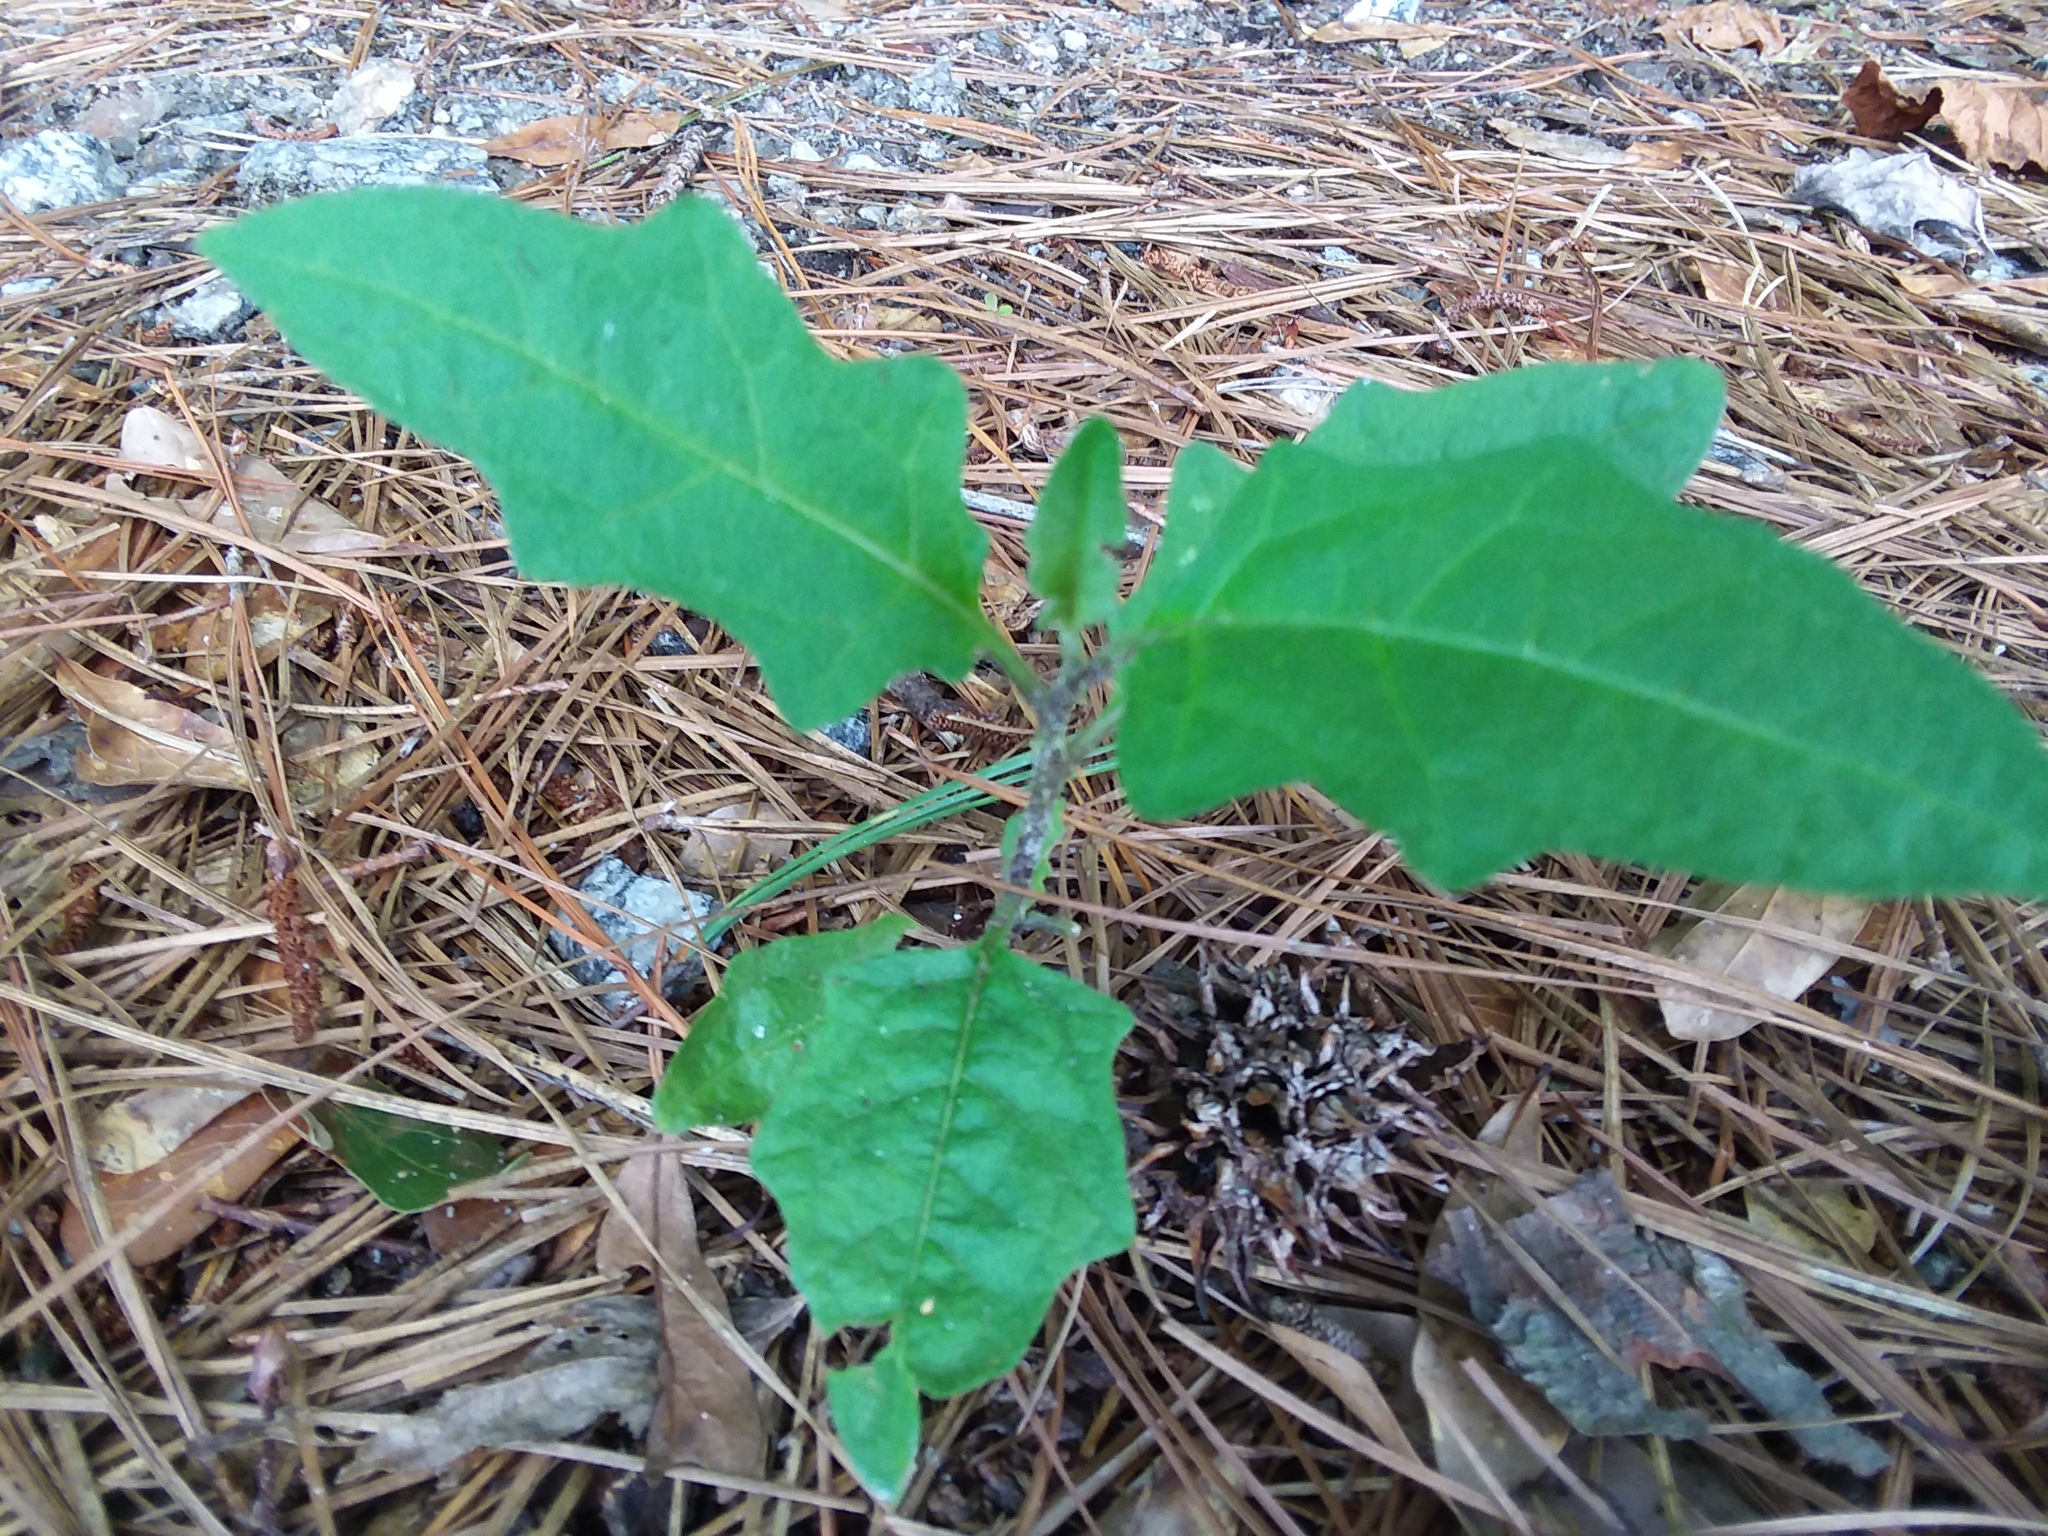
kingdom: Plantae
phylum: Tracheophyta
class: Magnoliopsida
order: Solanales
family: Solanaceae
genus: Solanum
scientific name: Solanum carolinense
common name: Horse-nettle
